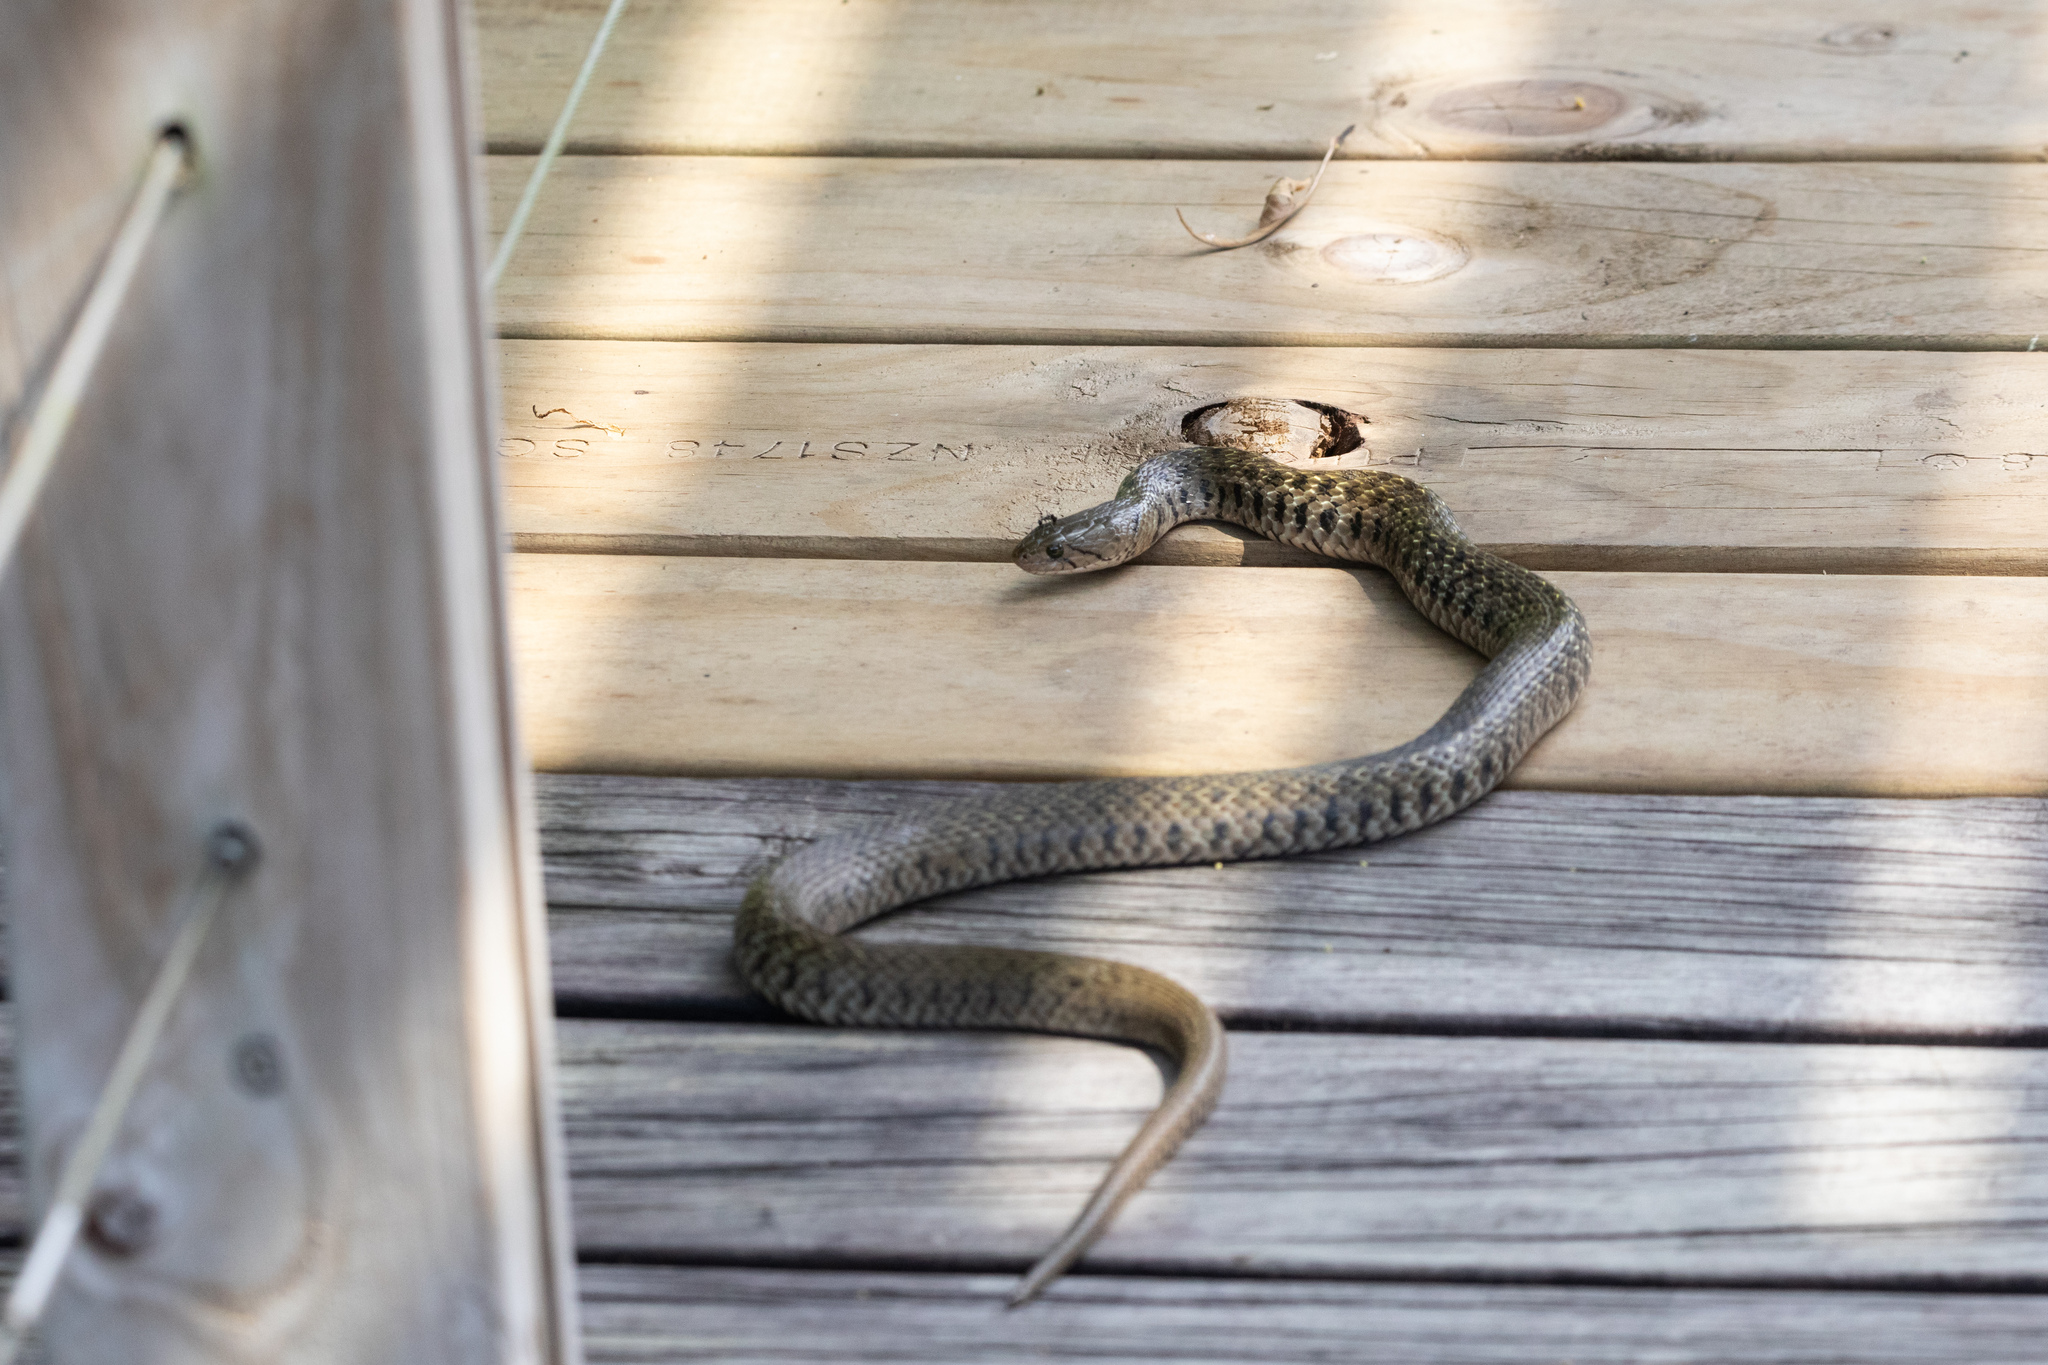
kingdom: Animalia
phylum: Chordata
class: Squamata
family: Colubridae
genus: Fowlea
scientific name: Fowlea flavipunctatus
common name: Yellow-spotted keelback
